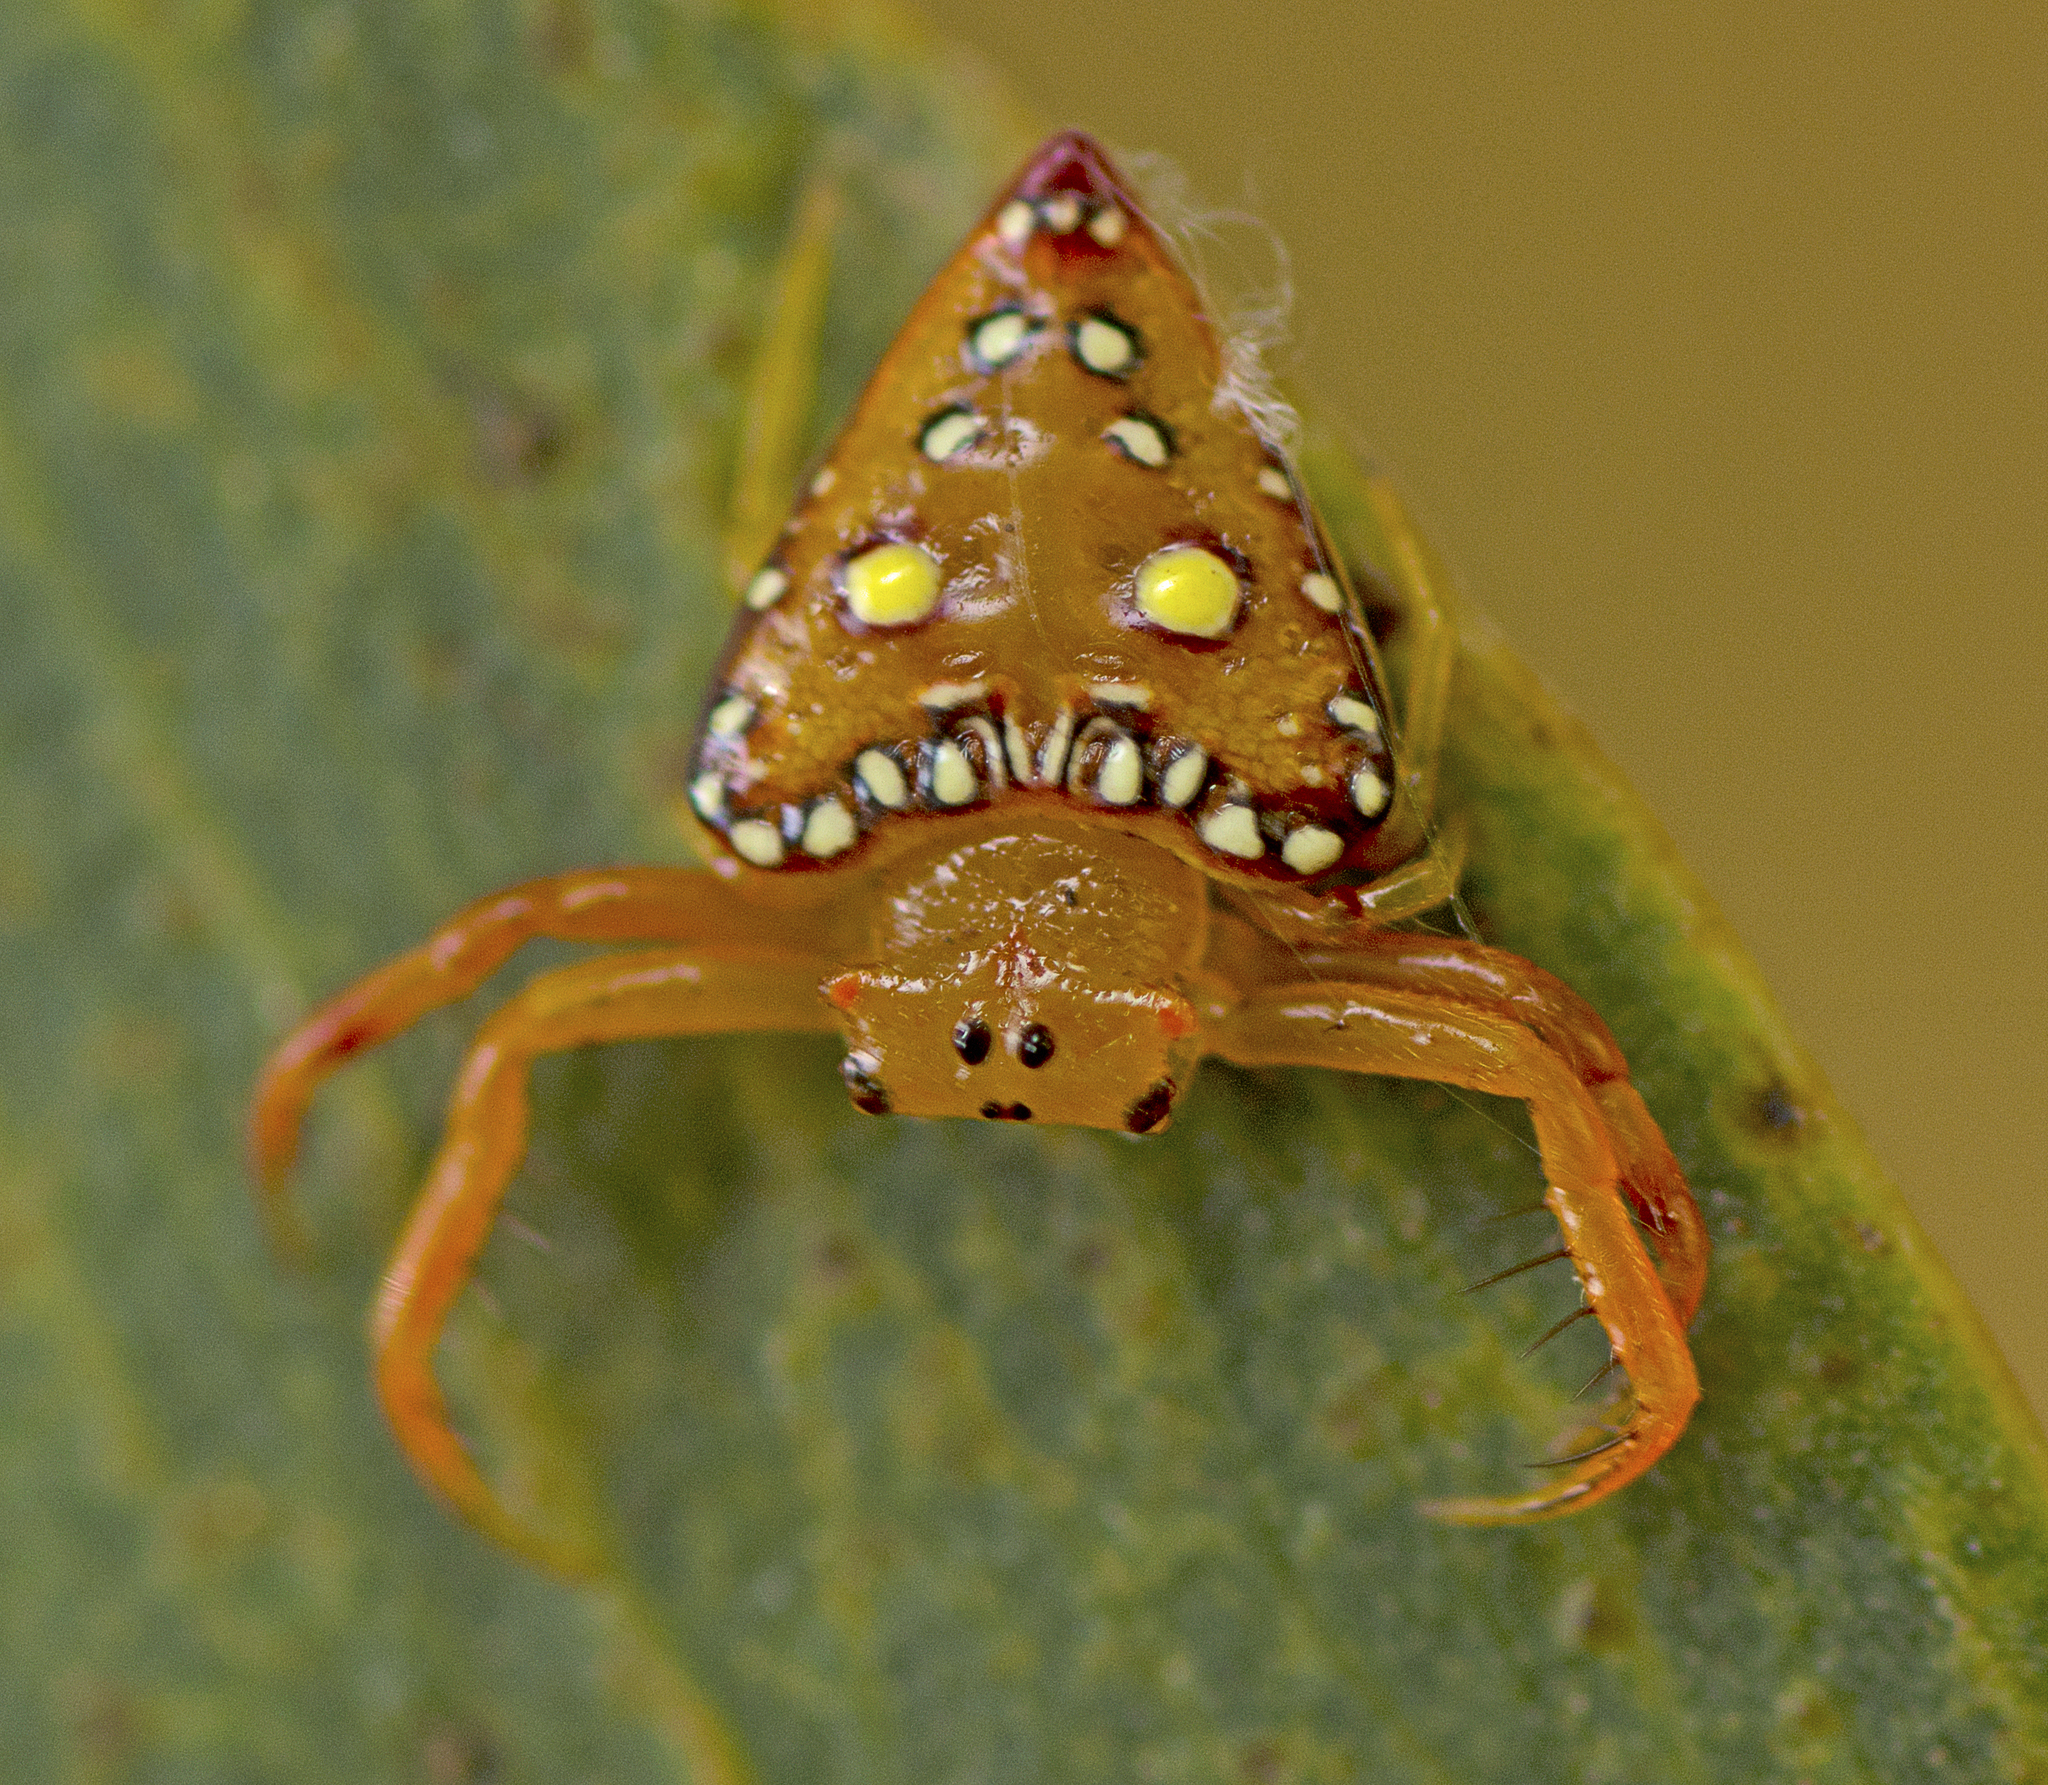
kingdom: Animalia
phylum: Arthropoda
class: Arachnida
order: Araneae
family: Arkyidae
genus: Arkys
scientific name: Arkys lancearius
